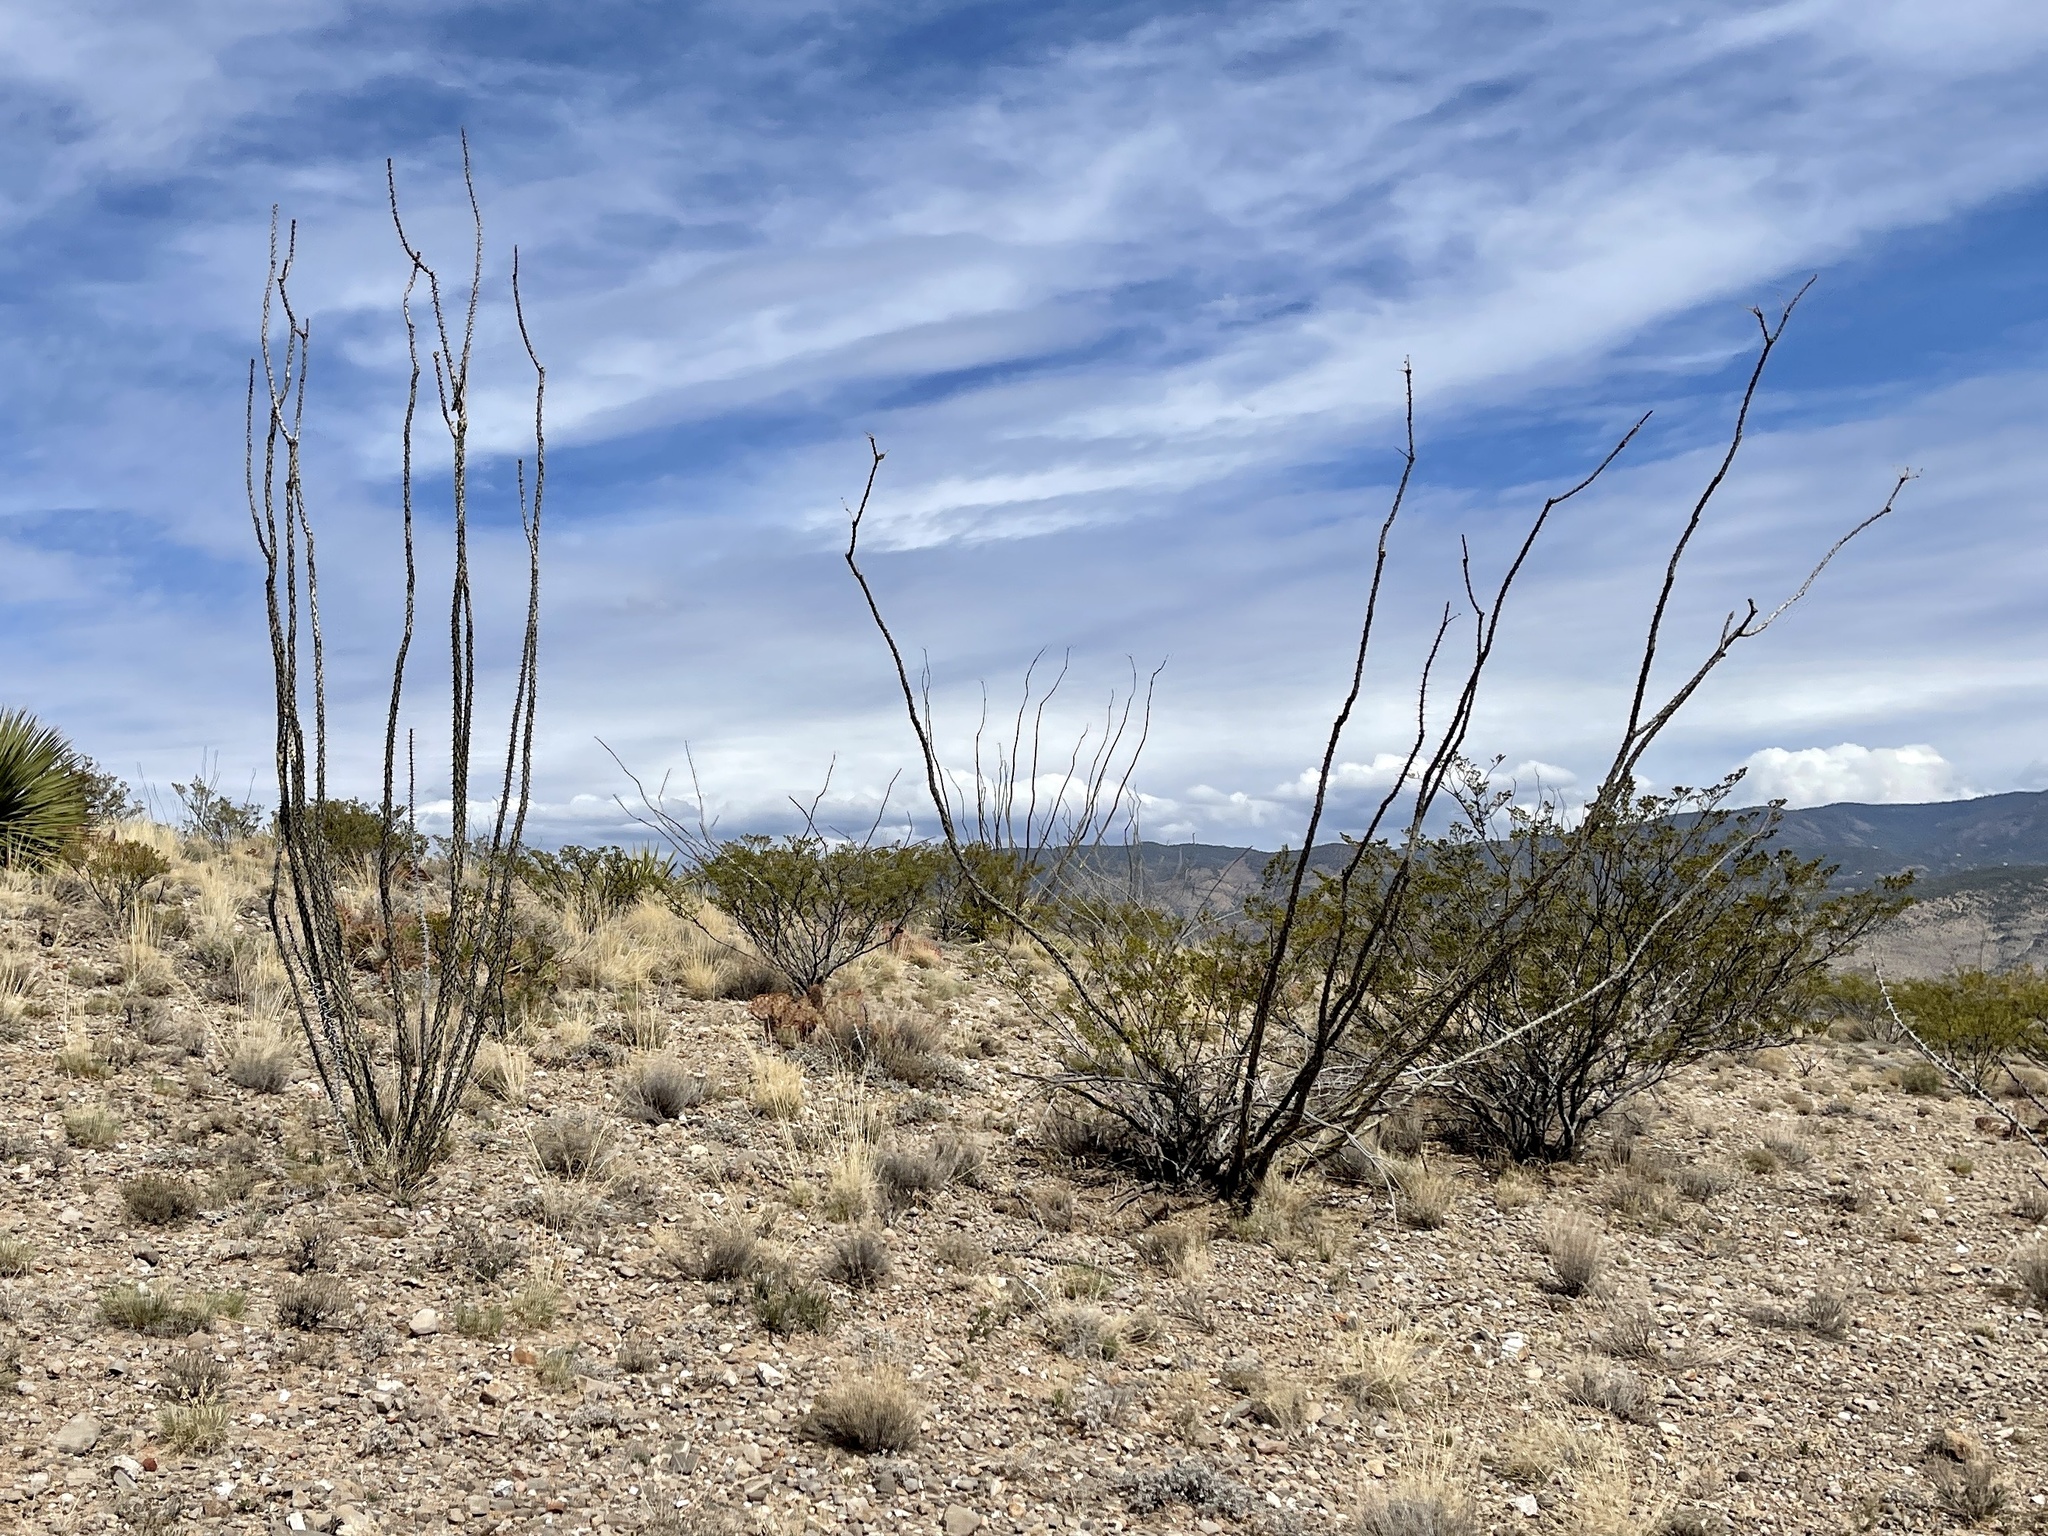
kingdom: Plantae
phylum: Tracheophyta
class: Magnoliopsida
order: Ericales
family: Fouquieriaceae
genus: Fouquieria
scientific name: Fouquieria splendens
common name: Vine-cactus
